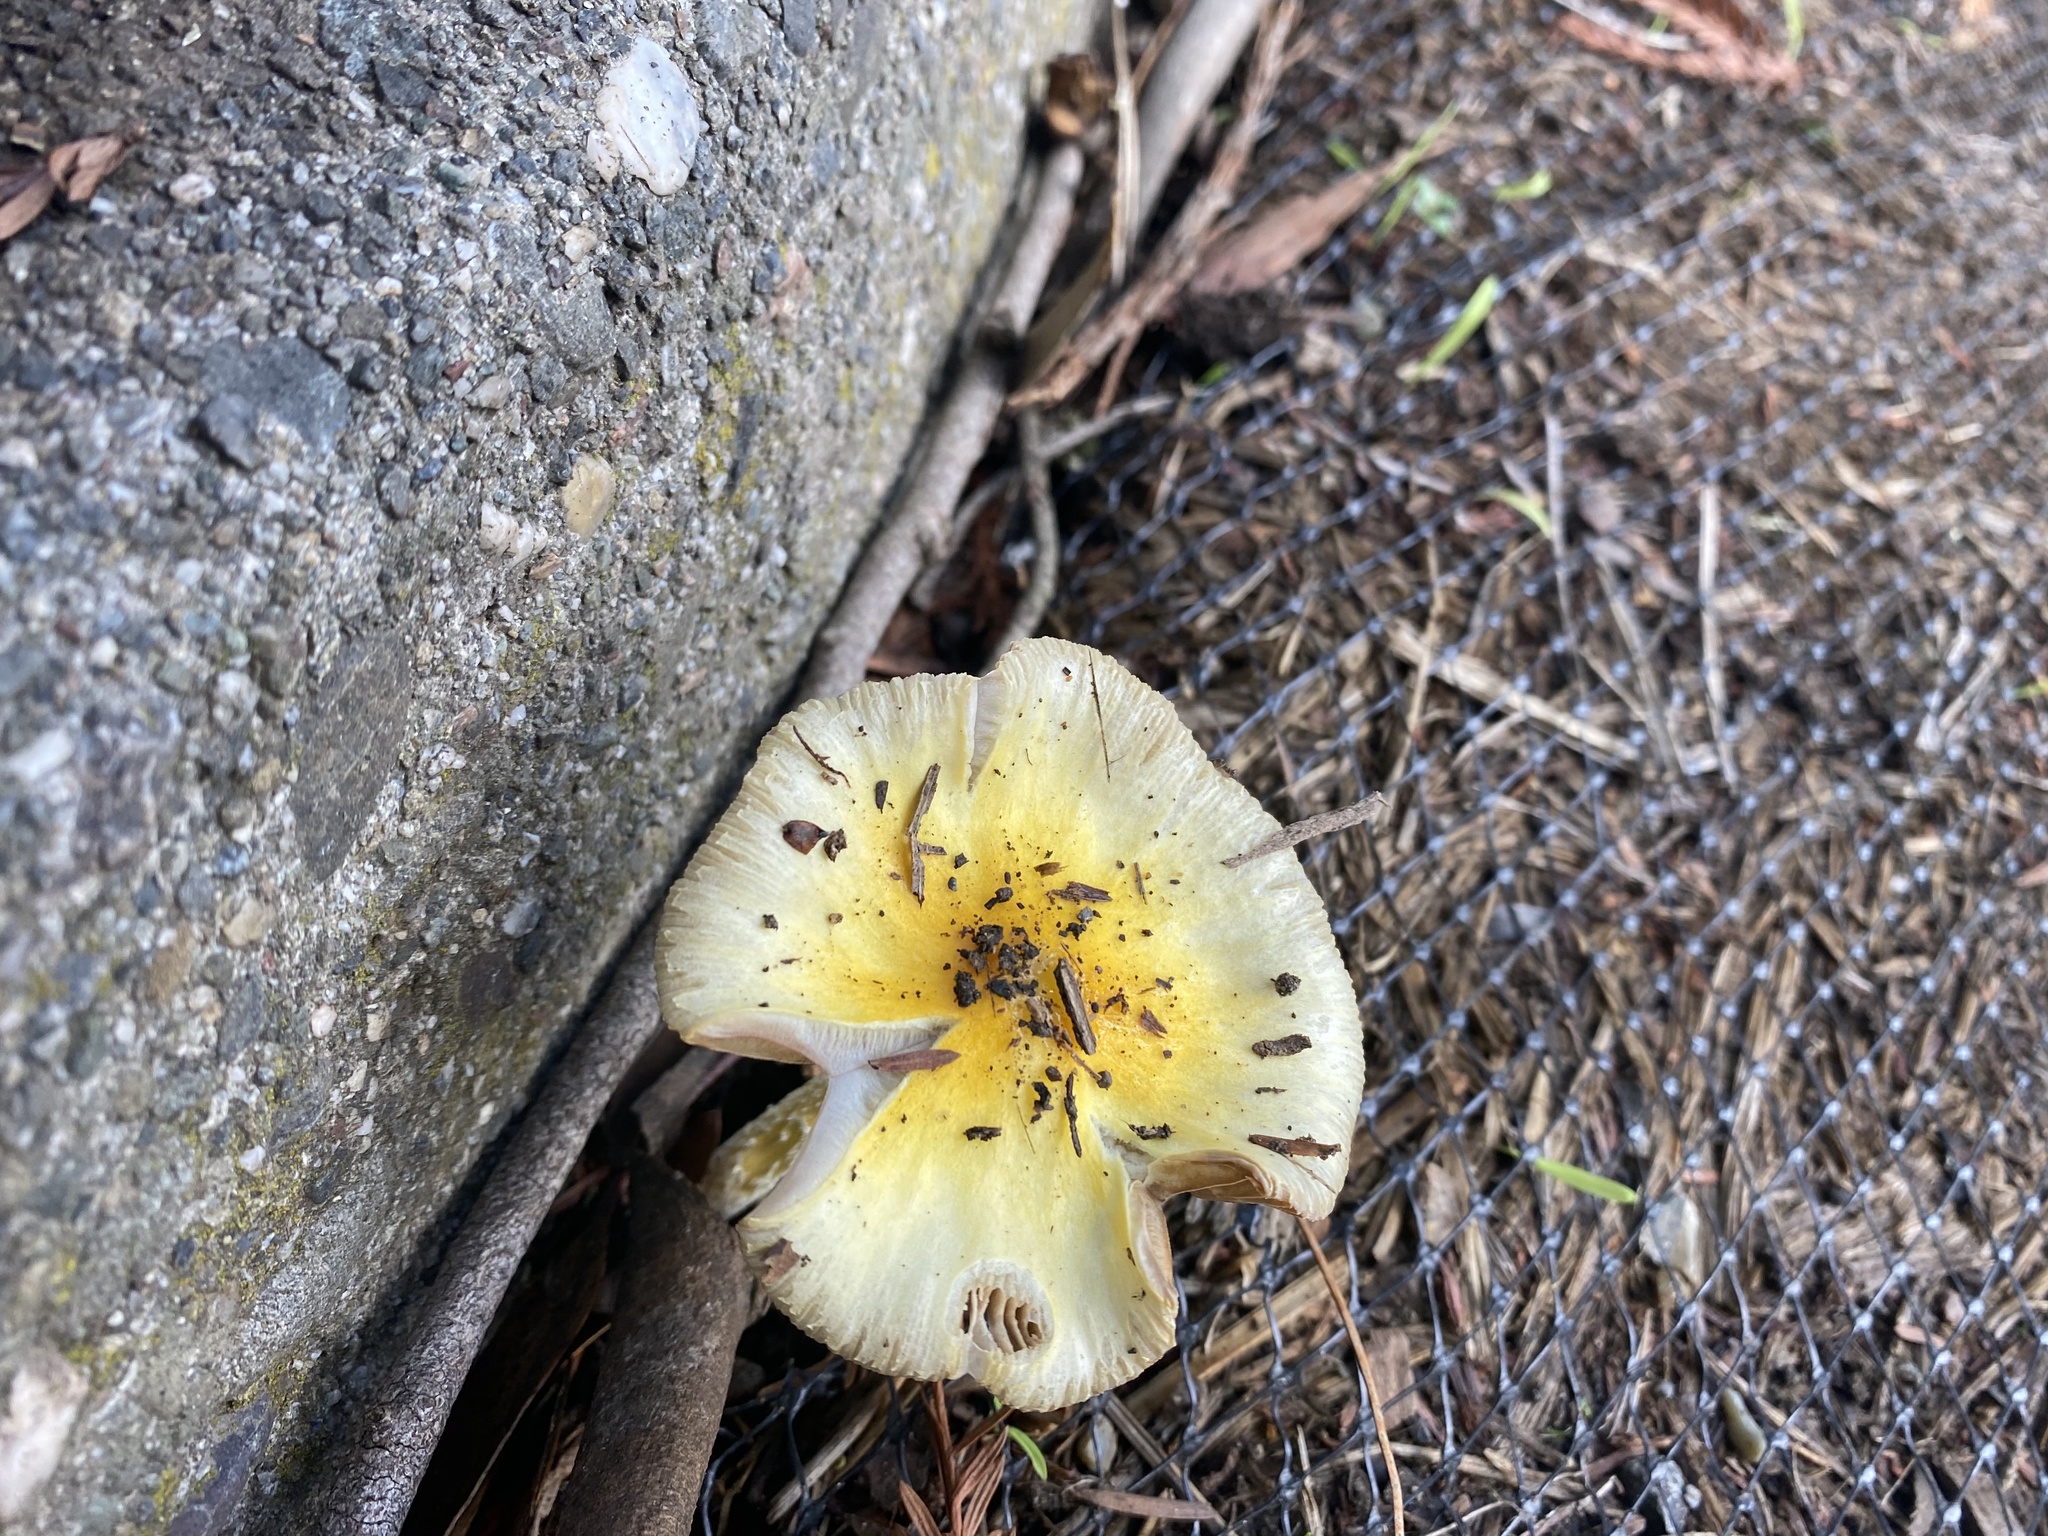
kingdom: Fungi
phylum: Basidiomycota
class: Agaricomycetes
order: Agaricales
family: Bolbitiaceae
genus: Bolbitius
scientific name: Bolbitius titubans
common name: Yellow fieldcap
